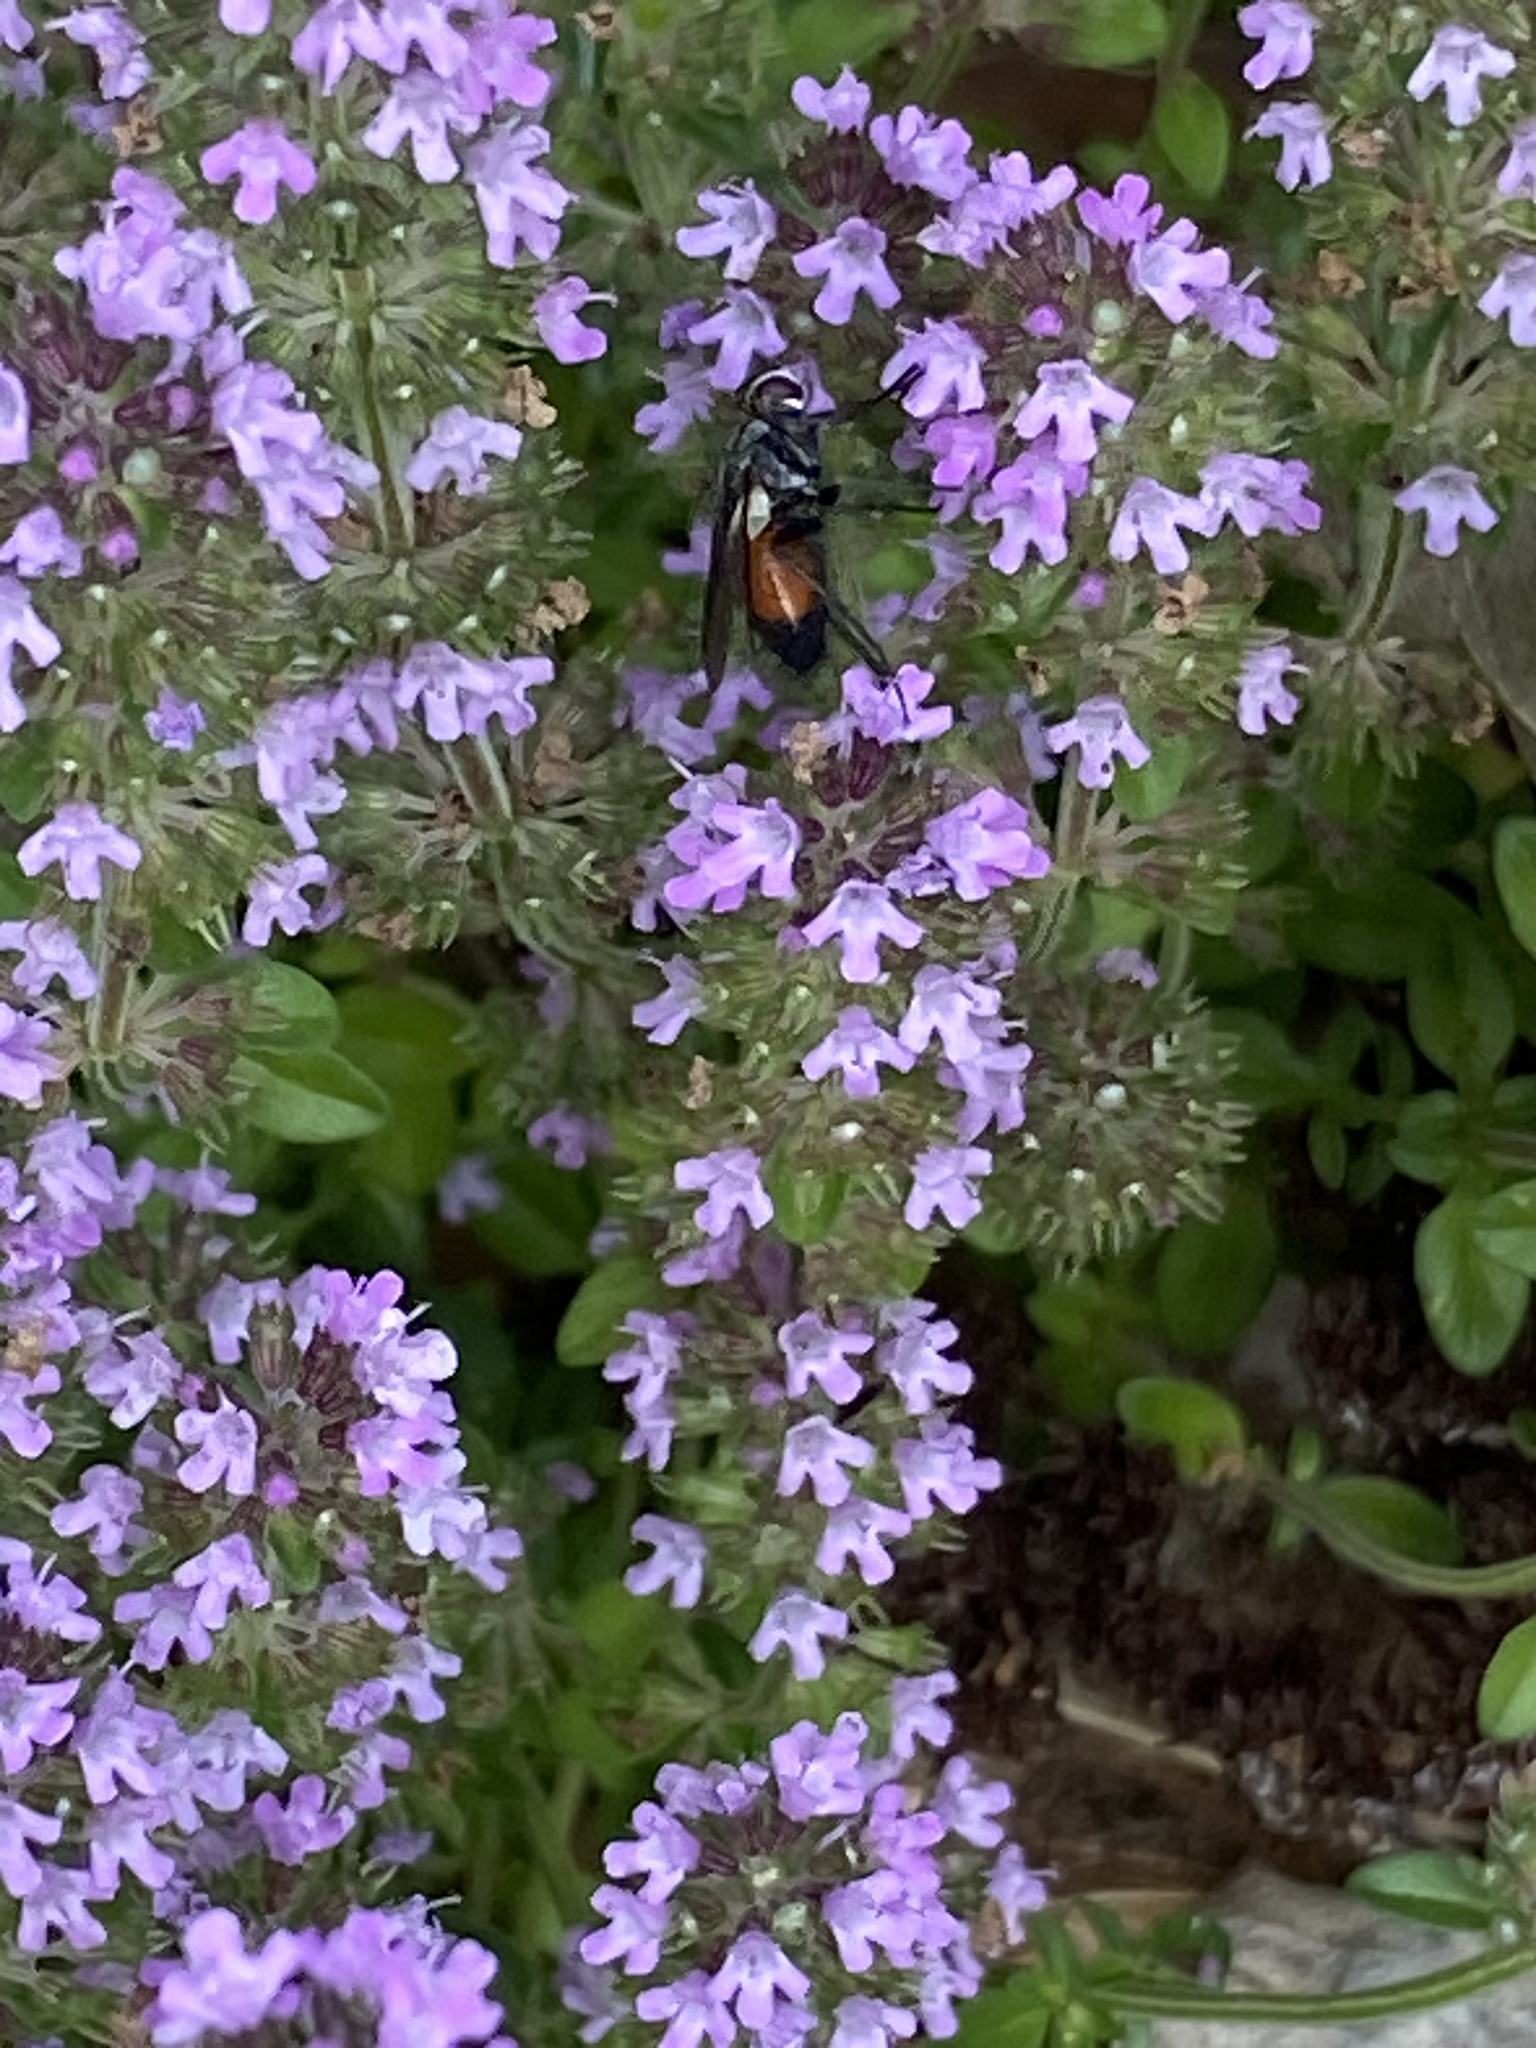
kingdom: Animalia
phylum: Arthropoda
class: Insecta
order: Diptera
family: Tachinidae
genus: Eriothrix
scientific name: Eriothrix rufomaculatus
